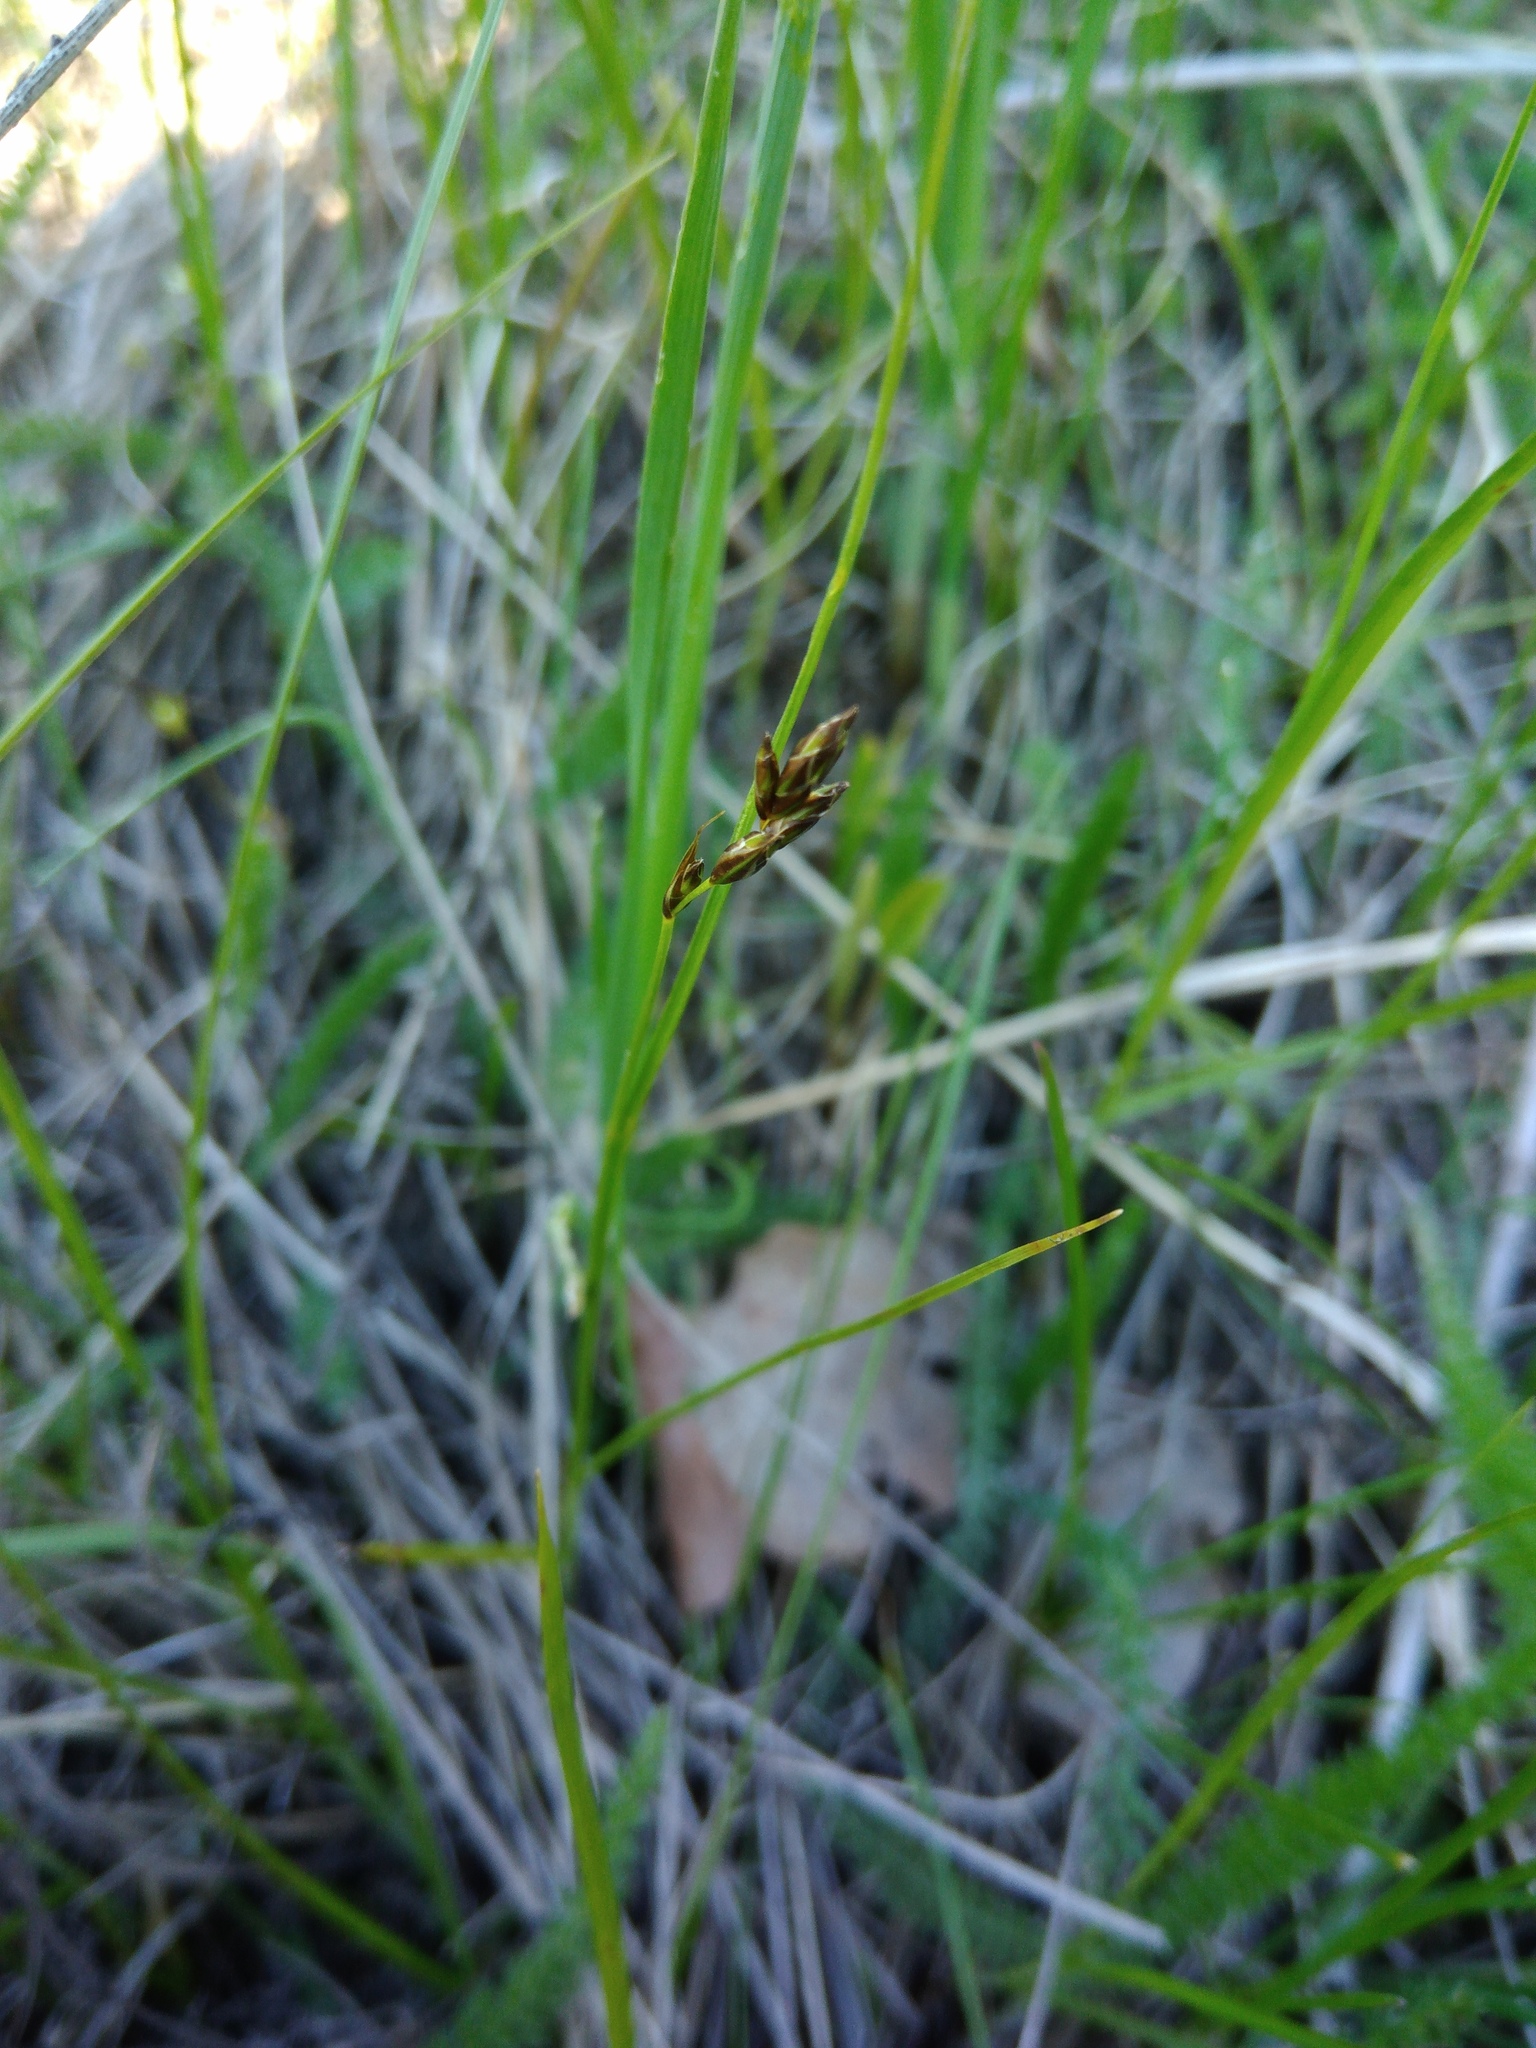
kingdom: Plantae
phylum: Tracheophyta
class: Liliopsida
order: Poales
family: Cyperaceae
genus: Carex
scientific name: Carex praecox
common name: Early sedge
